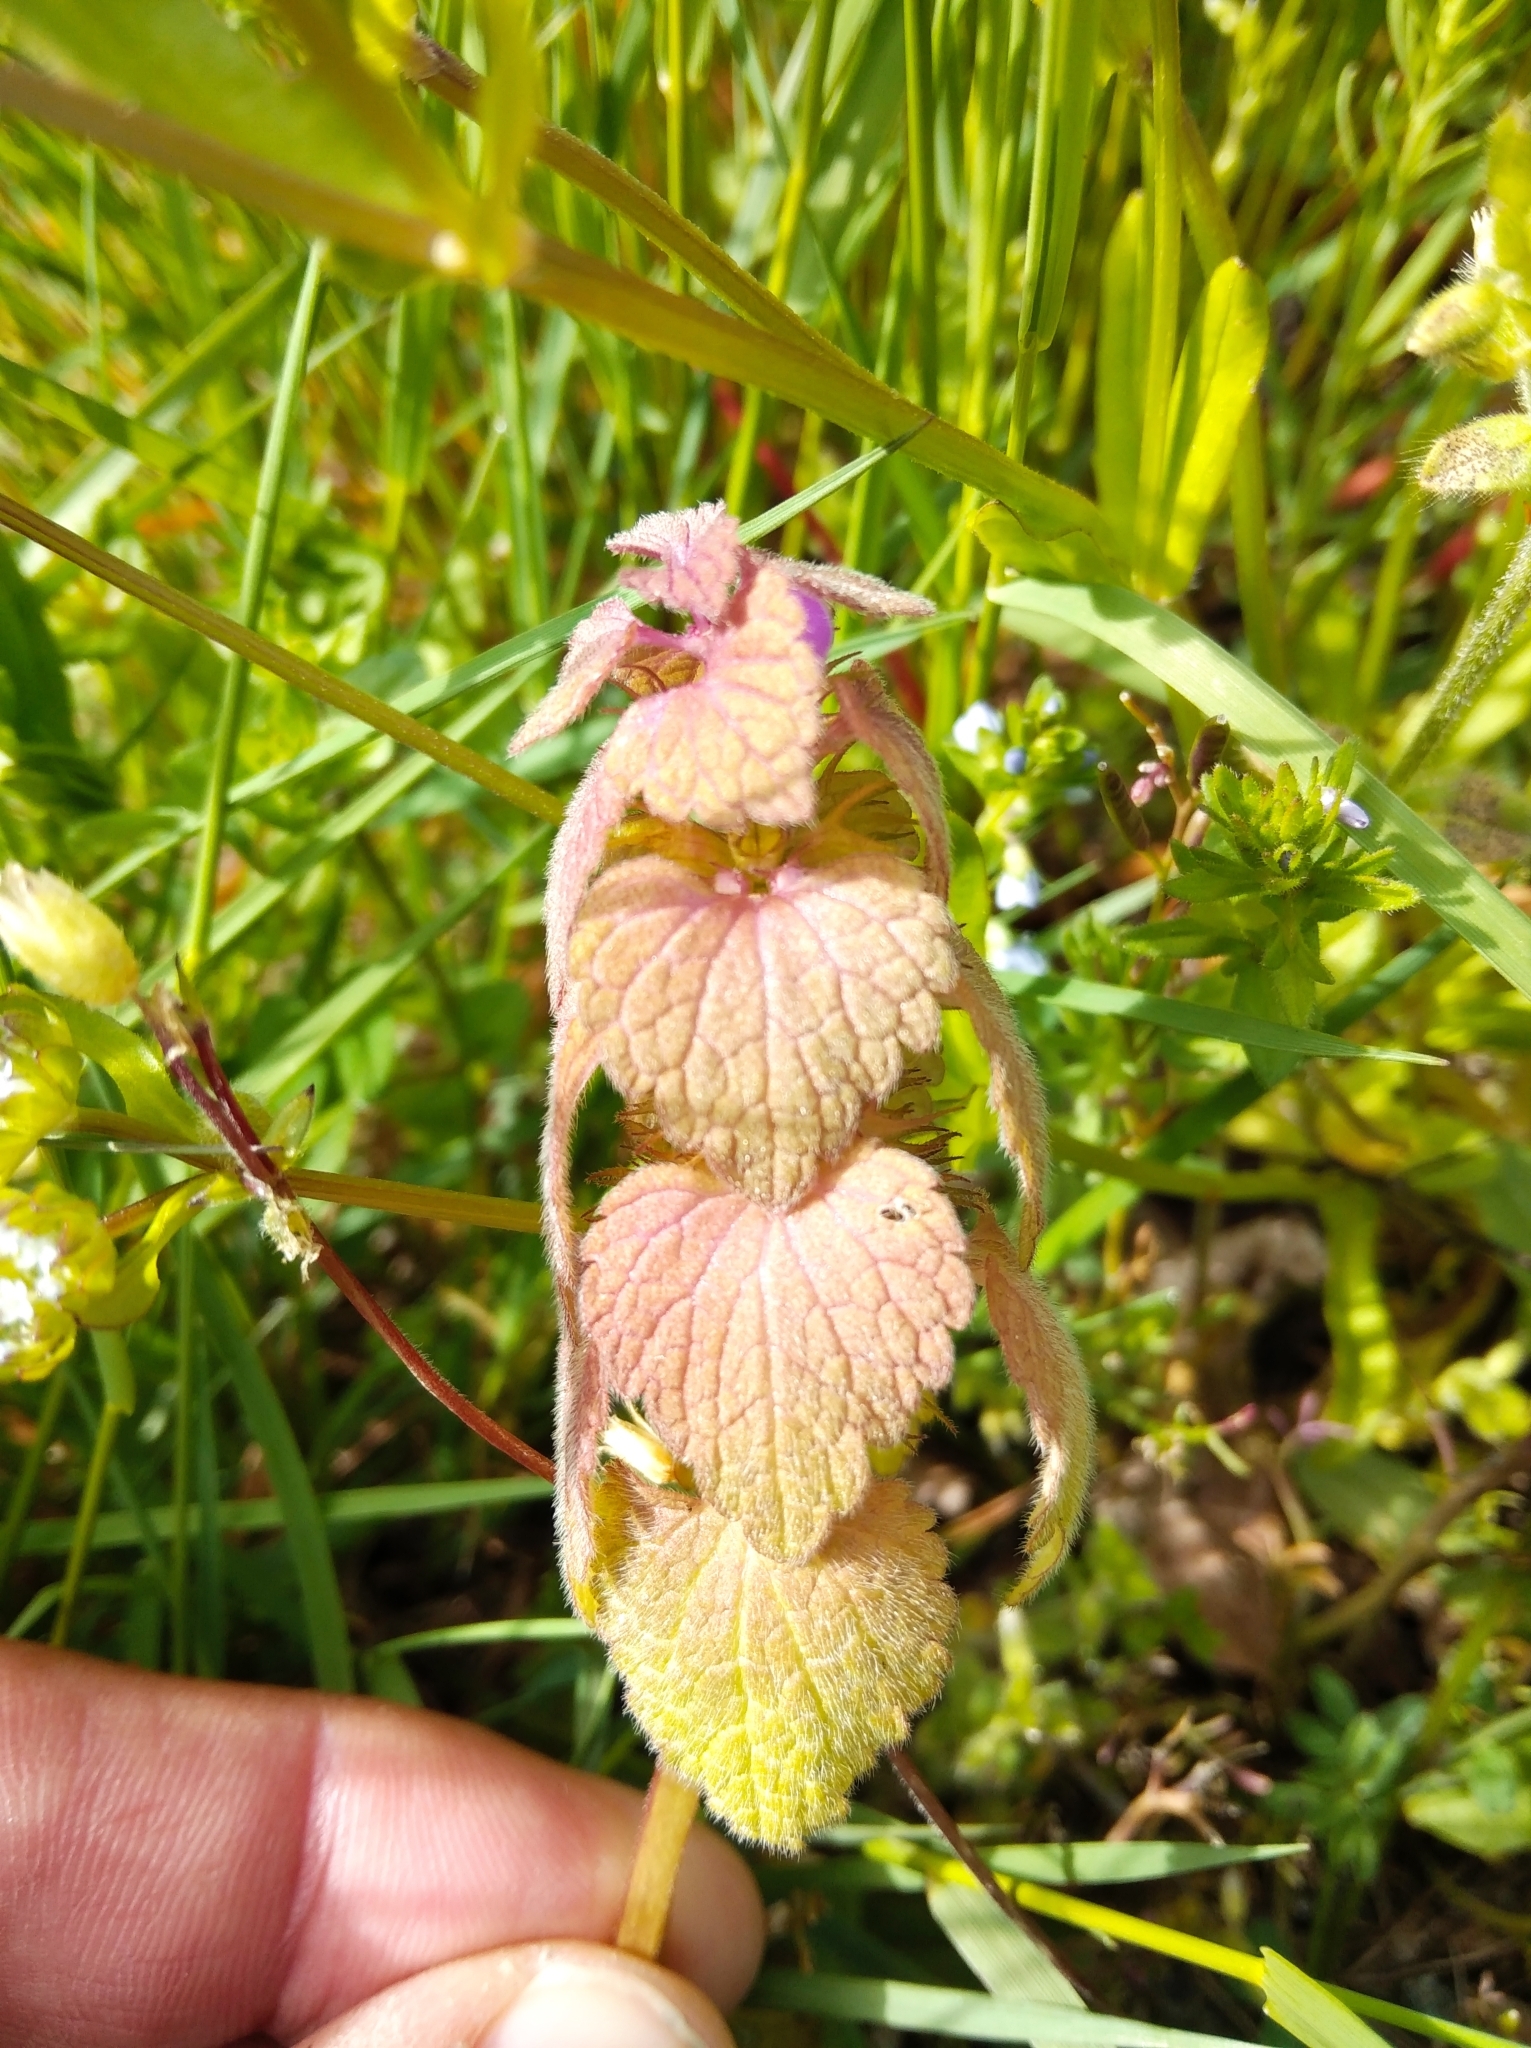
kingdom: Plantae
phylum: Tracheophyta
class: Magnoliopsida
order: Lamiales
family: Lamiaceae
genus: Lamium
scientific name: Lamium purpureum
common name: Red dead-nettle
